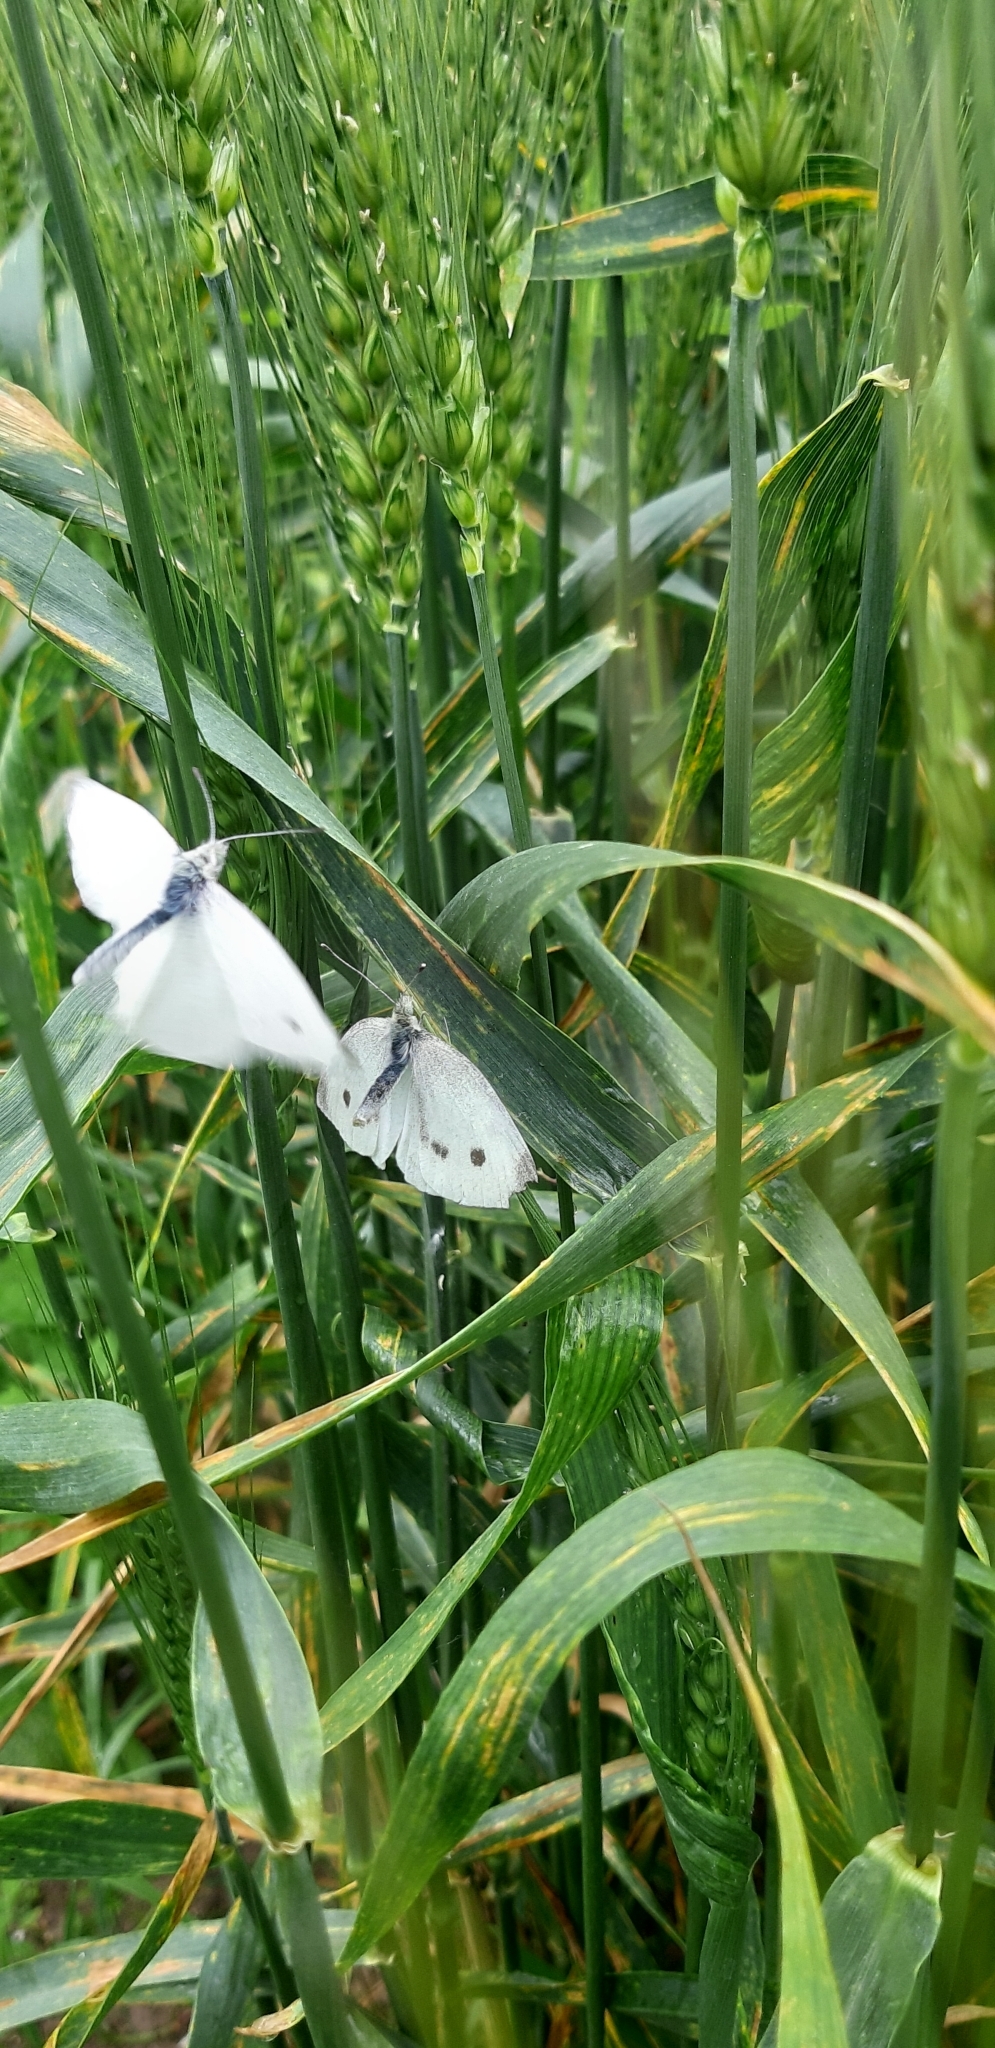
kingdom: Animalia
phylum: Arthropoda
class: Insecta
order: Lepidoptera
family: Pieridae
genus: Pieris
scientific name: Pieris rapae
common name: Small white
